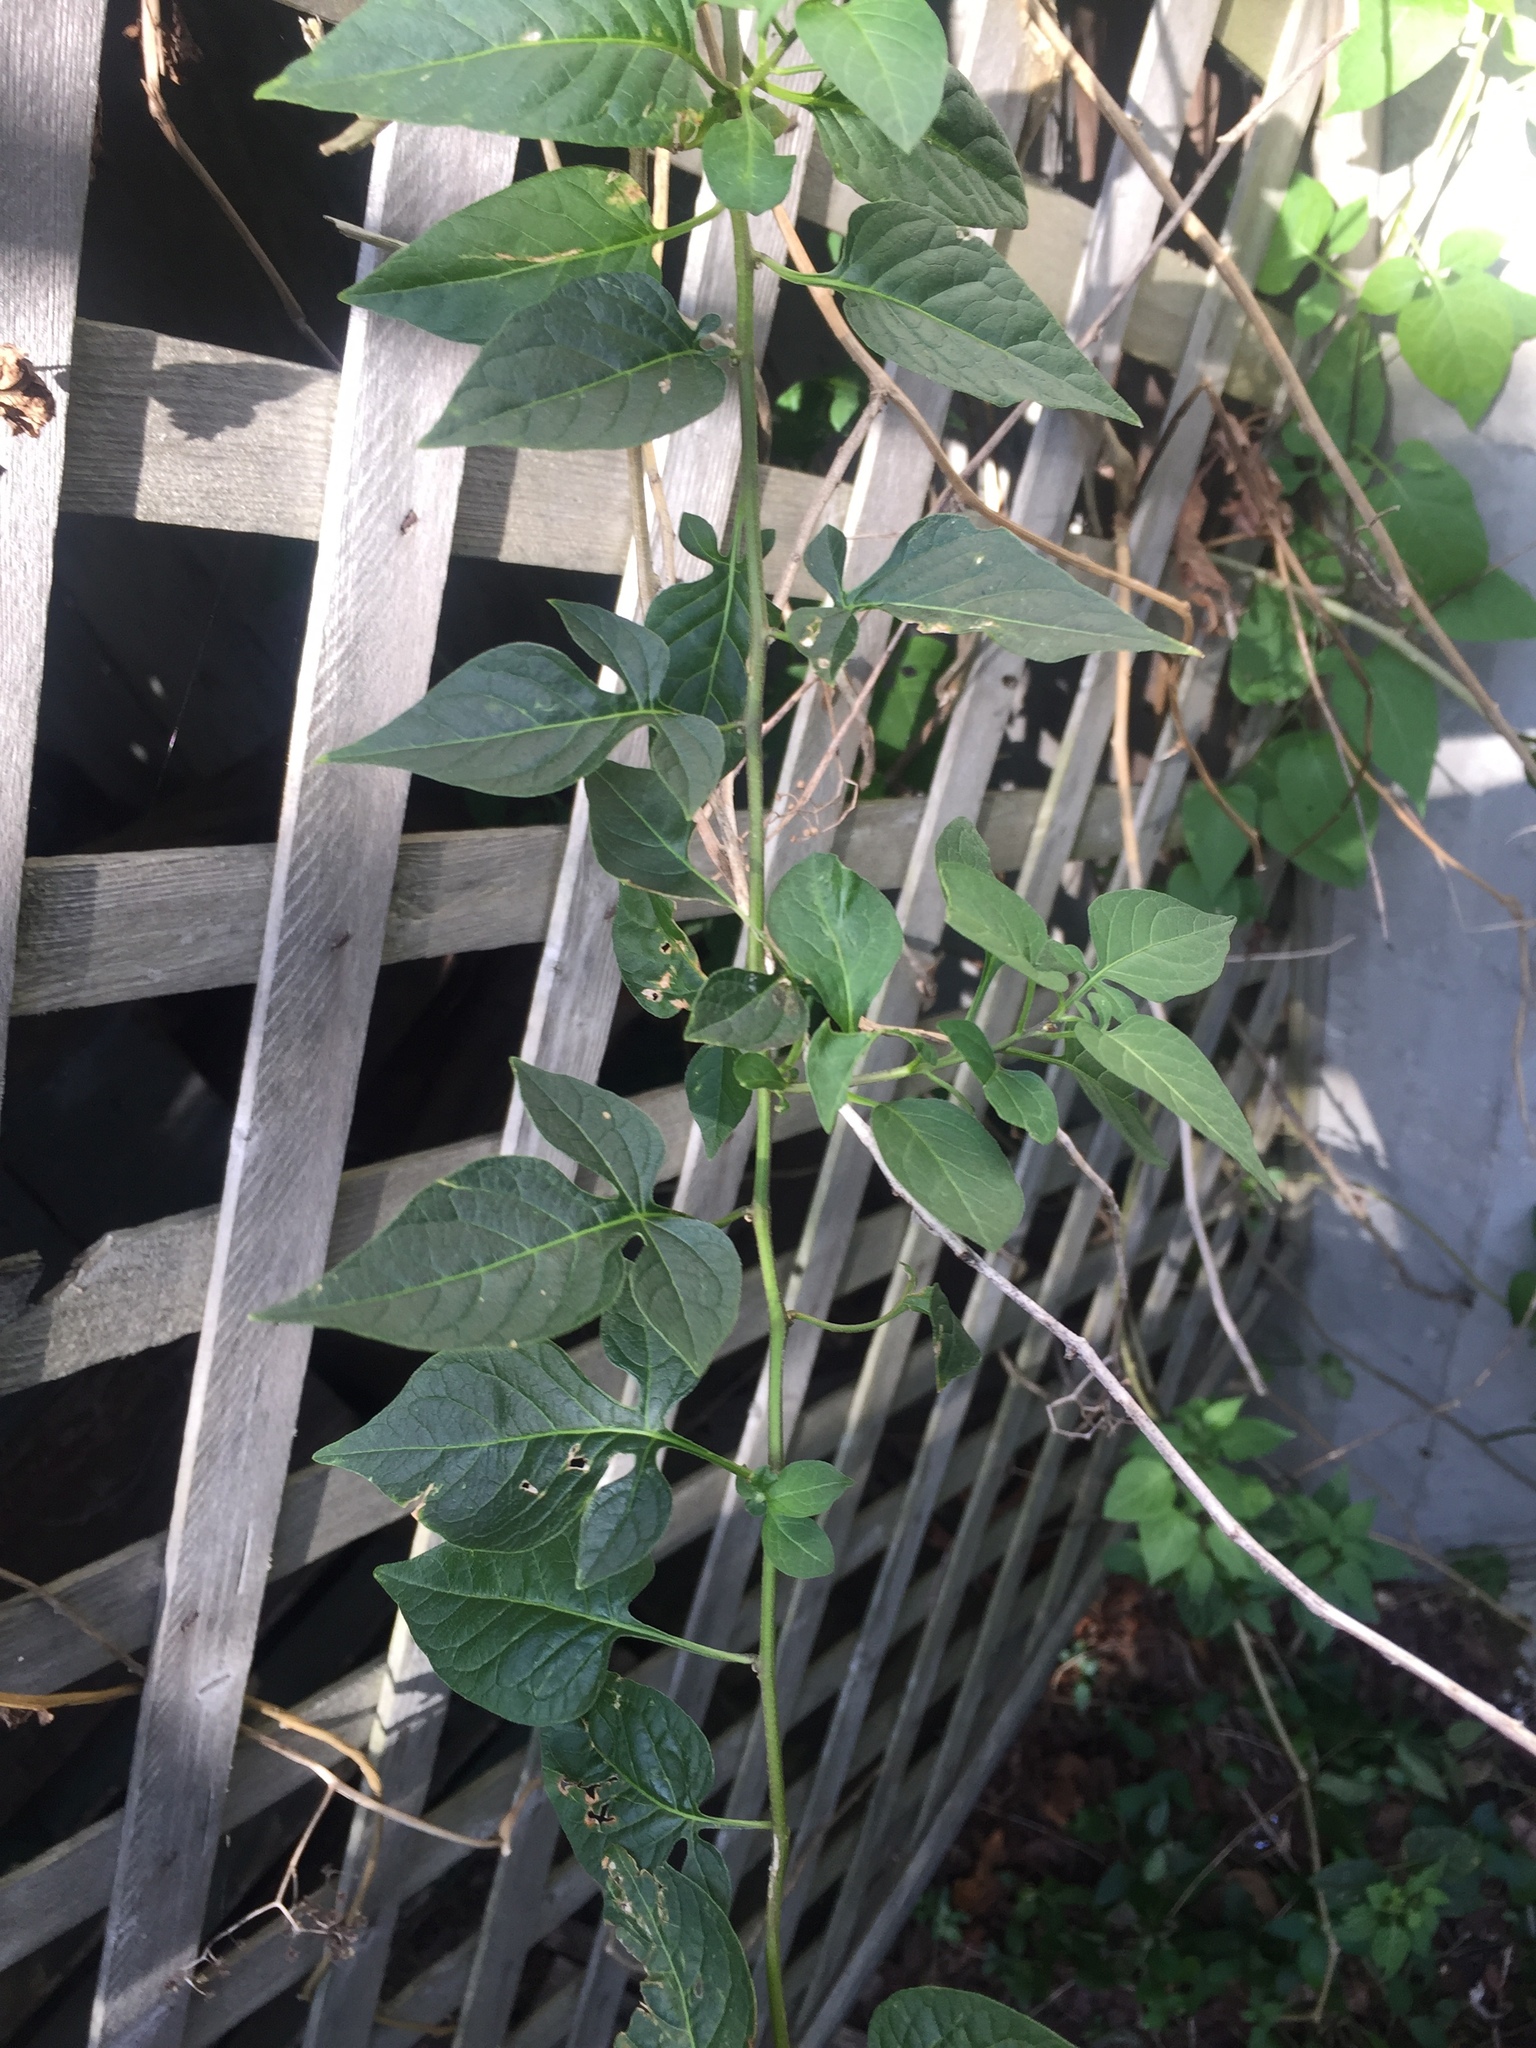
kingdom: Plantae
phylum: Tracheophyta
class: Magnoliopsida
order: Solanales
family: Solanaceae
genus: Solanum
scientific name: Solanum dulcamara
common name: Climbing nightshade
